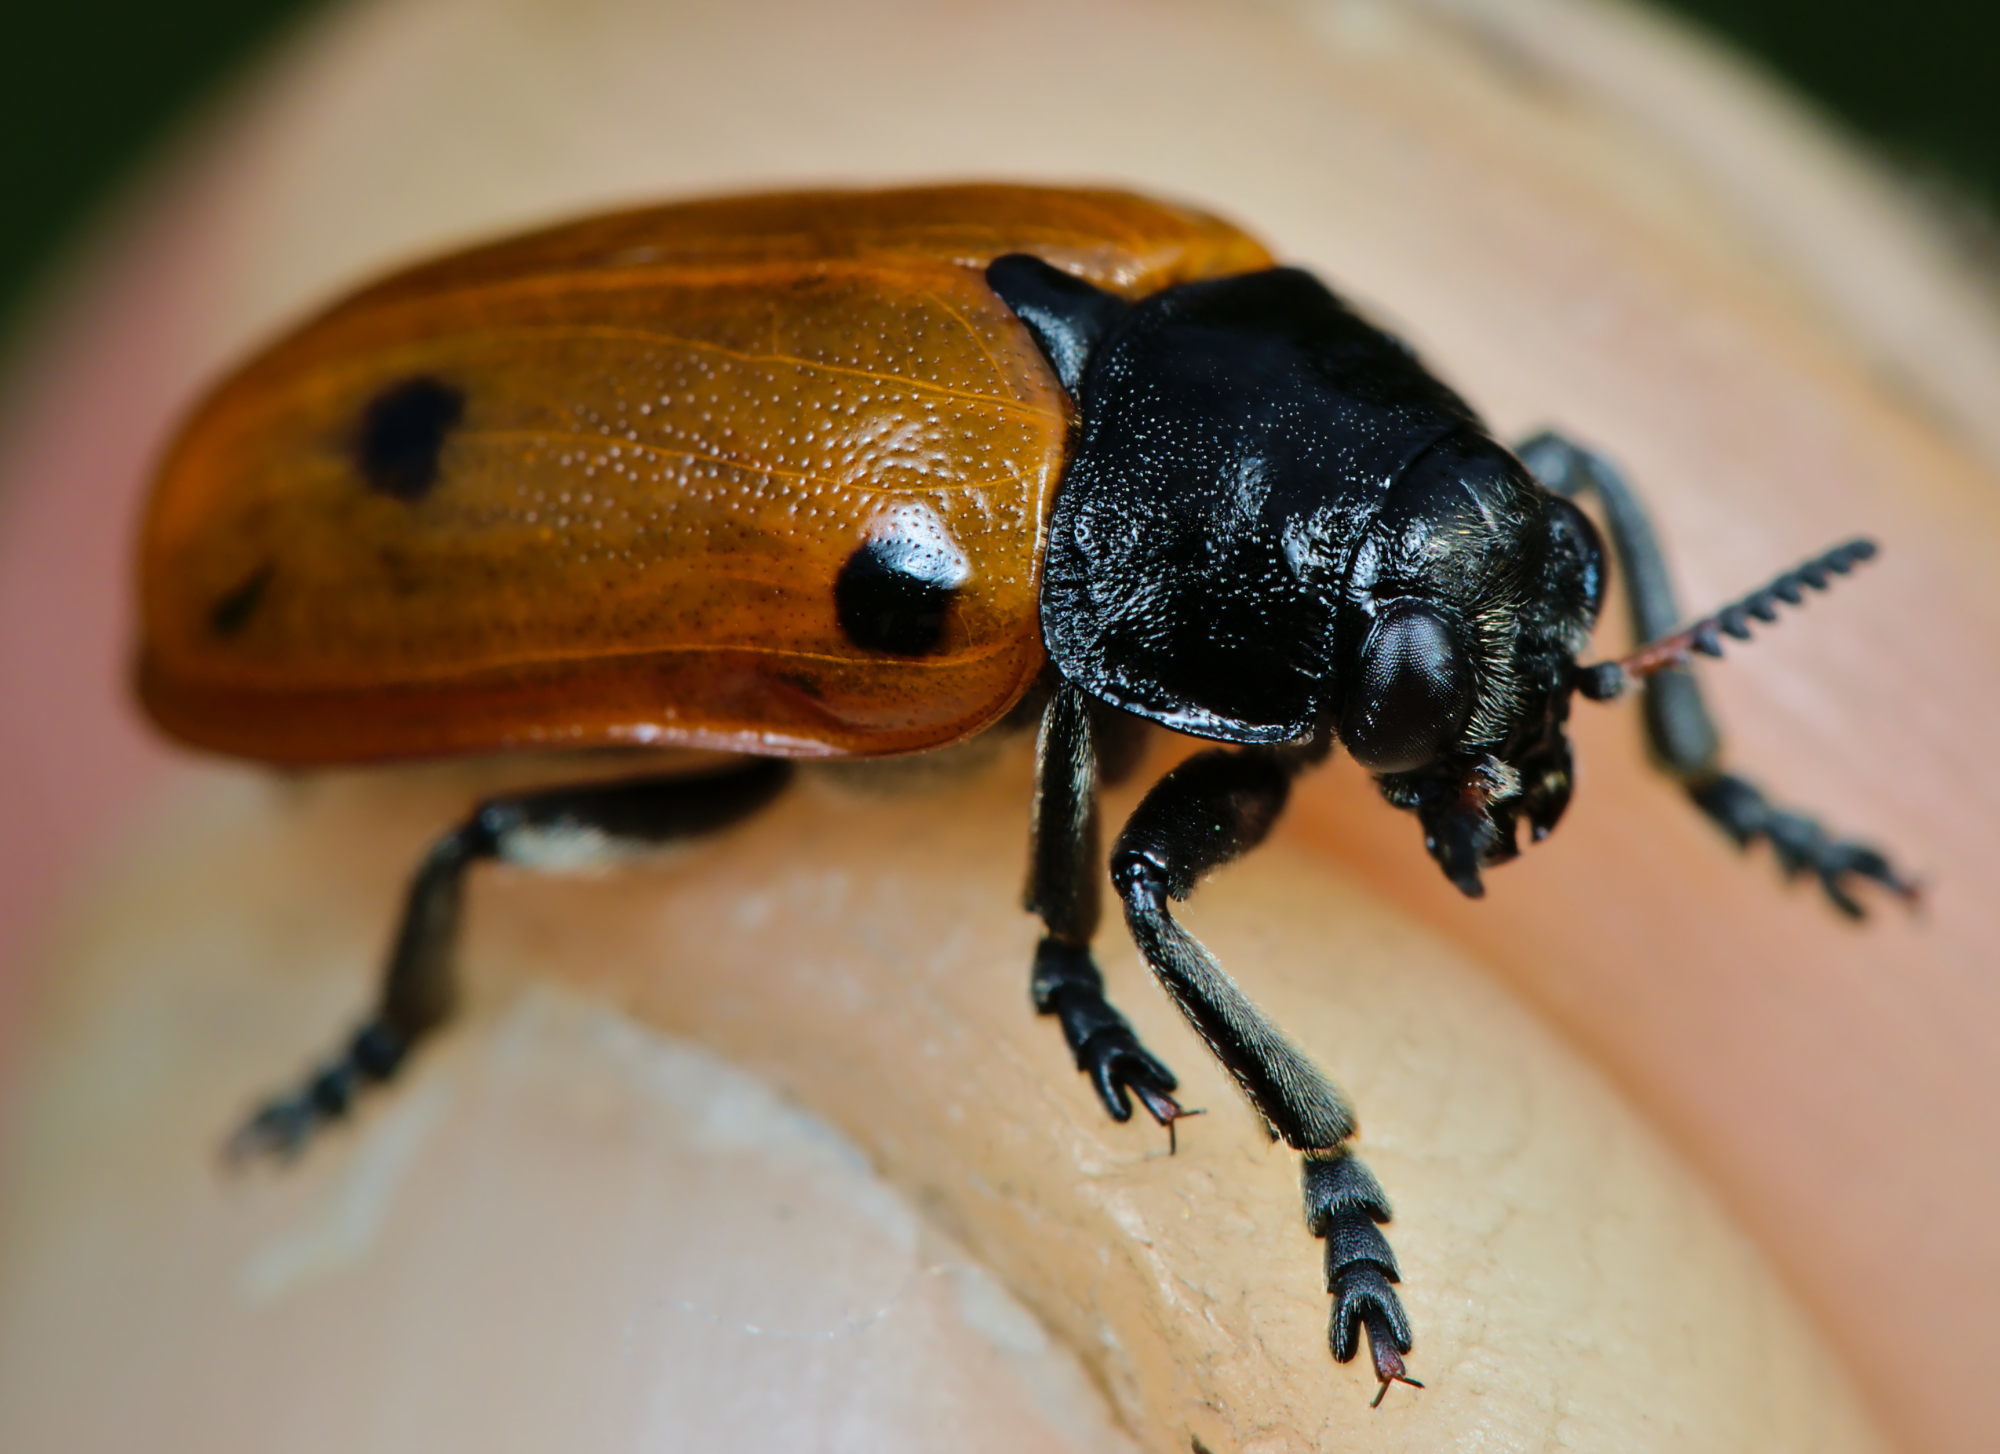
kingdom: Animalia
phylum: Arthropoda
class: Insecta
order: Coleoptera
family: Chrysomelidae
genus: Clytra
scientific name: Clytra quadripunctata
